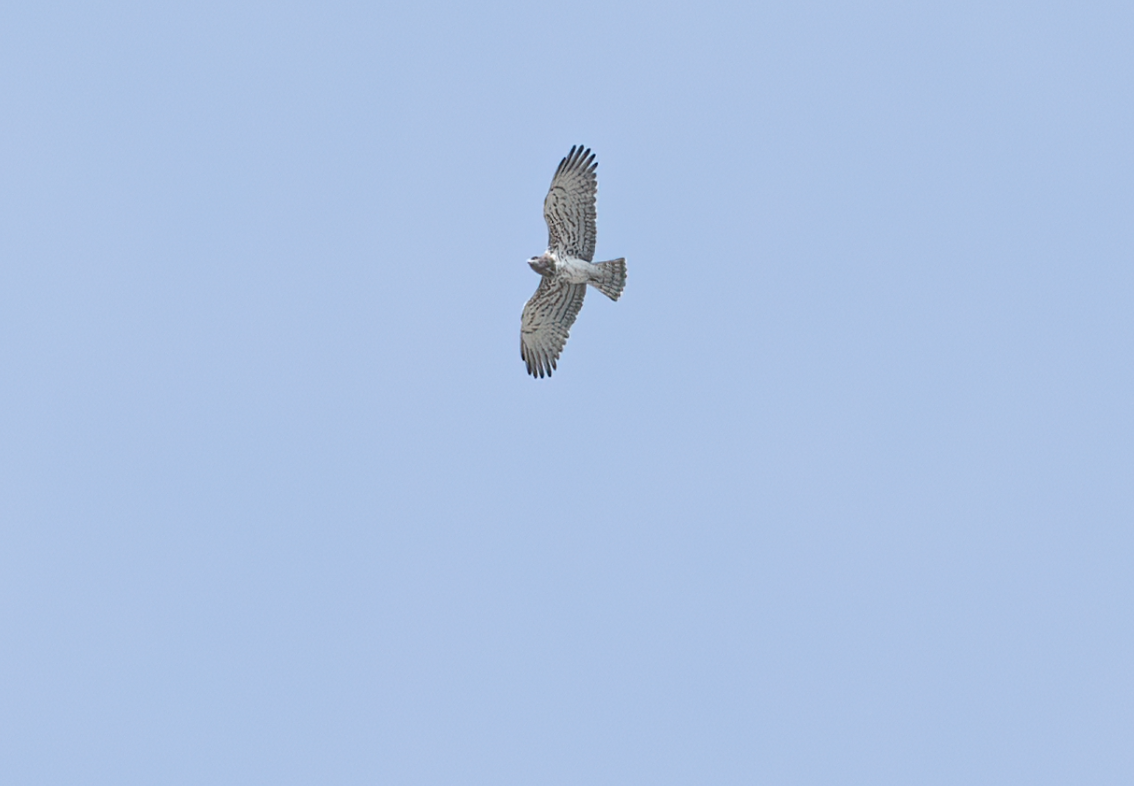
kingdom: Animalia
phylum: Chordata
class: Aves
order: Accipitriformes
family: Accipitridae
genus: Circaetus
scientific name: Circaetus gallicus
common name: Short-toed snake eagle
